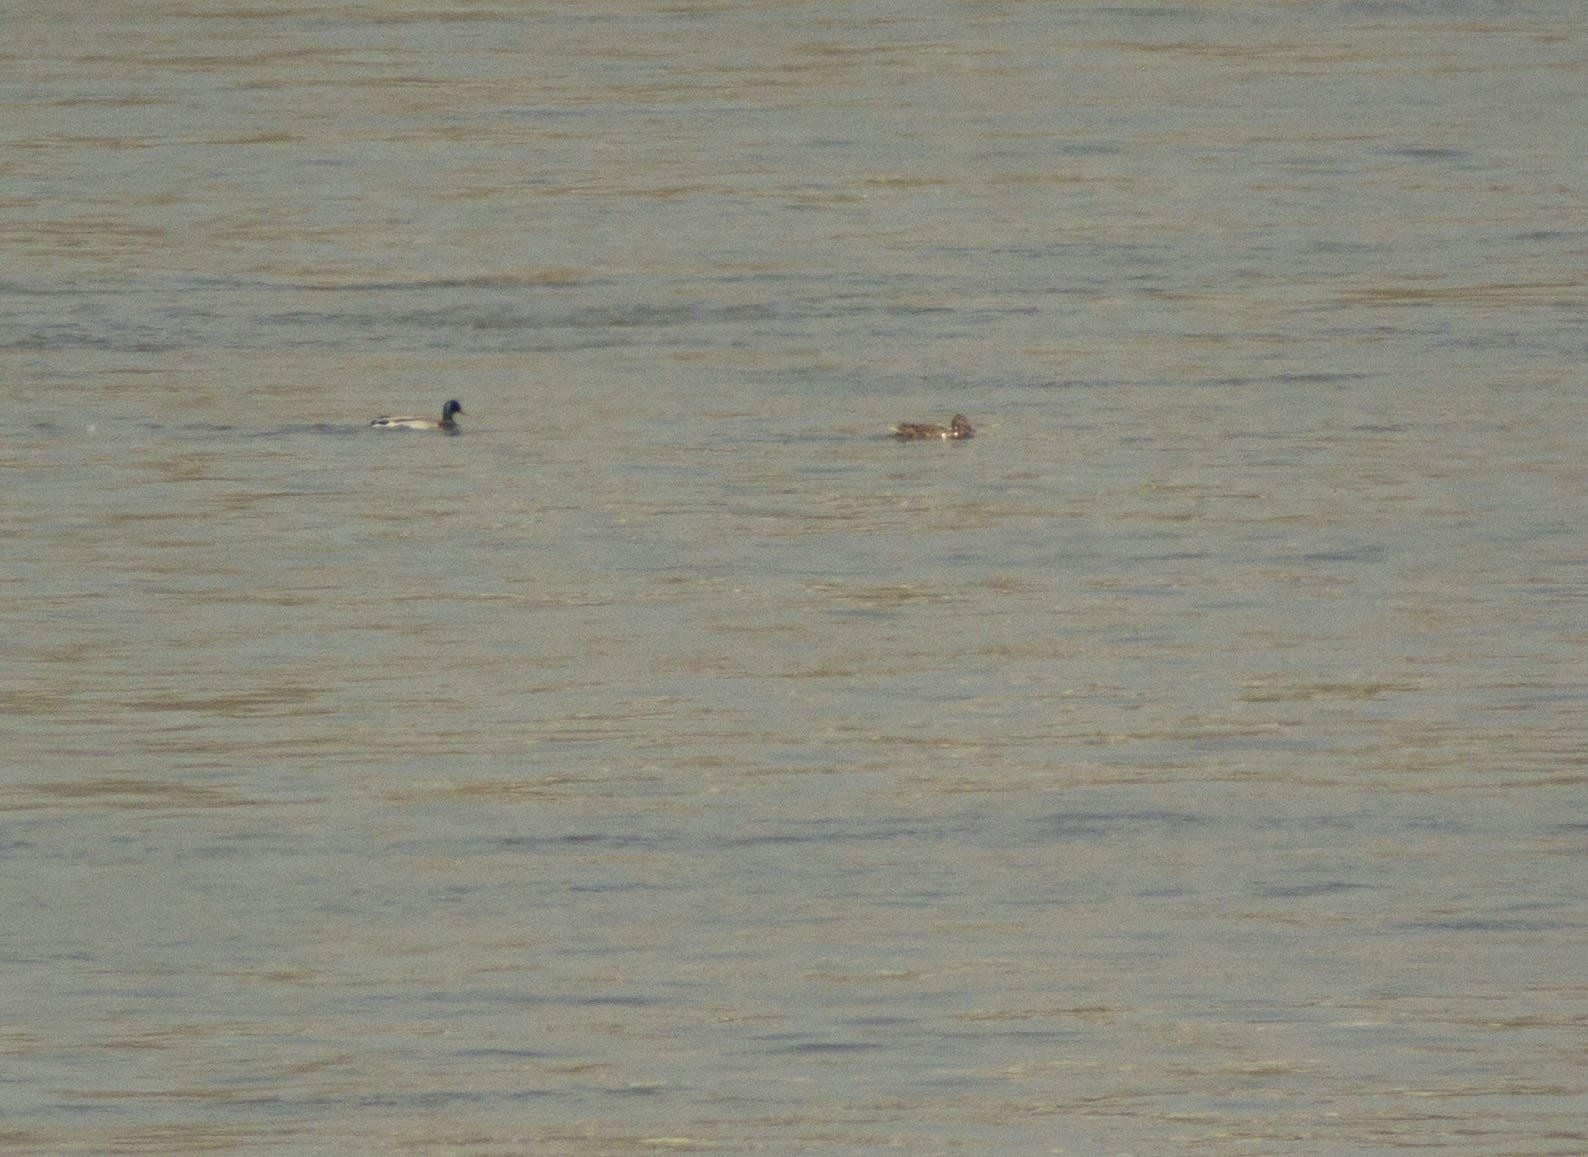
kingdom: Animalia
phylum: Chordata
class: Aves
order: Anseriformes
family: Anatidae
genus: Anas
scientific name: Anas platyrhynchos
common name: Mallard
